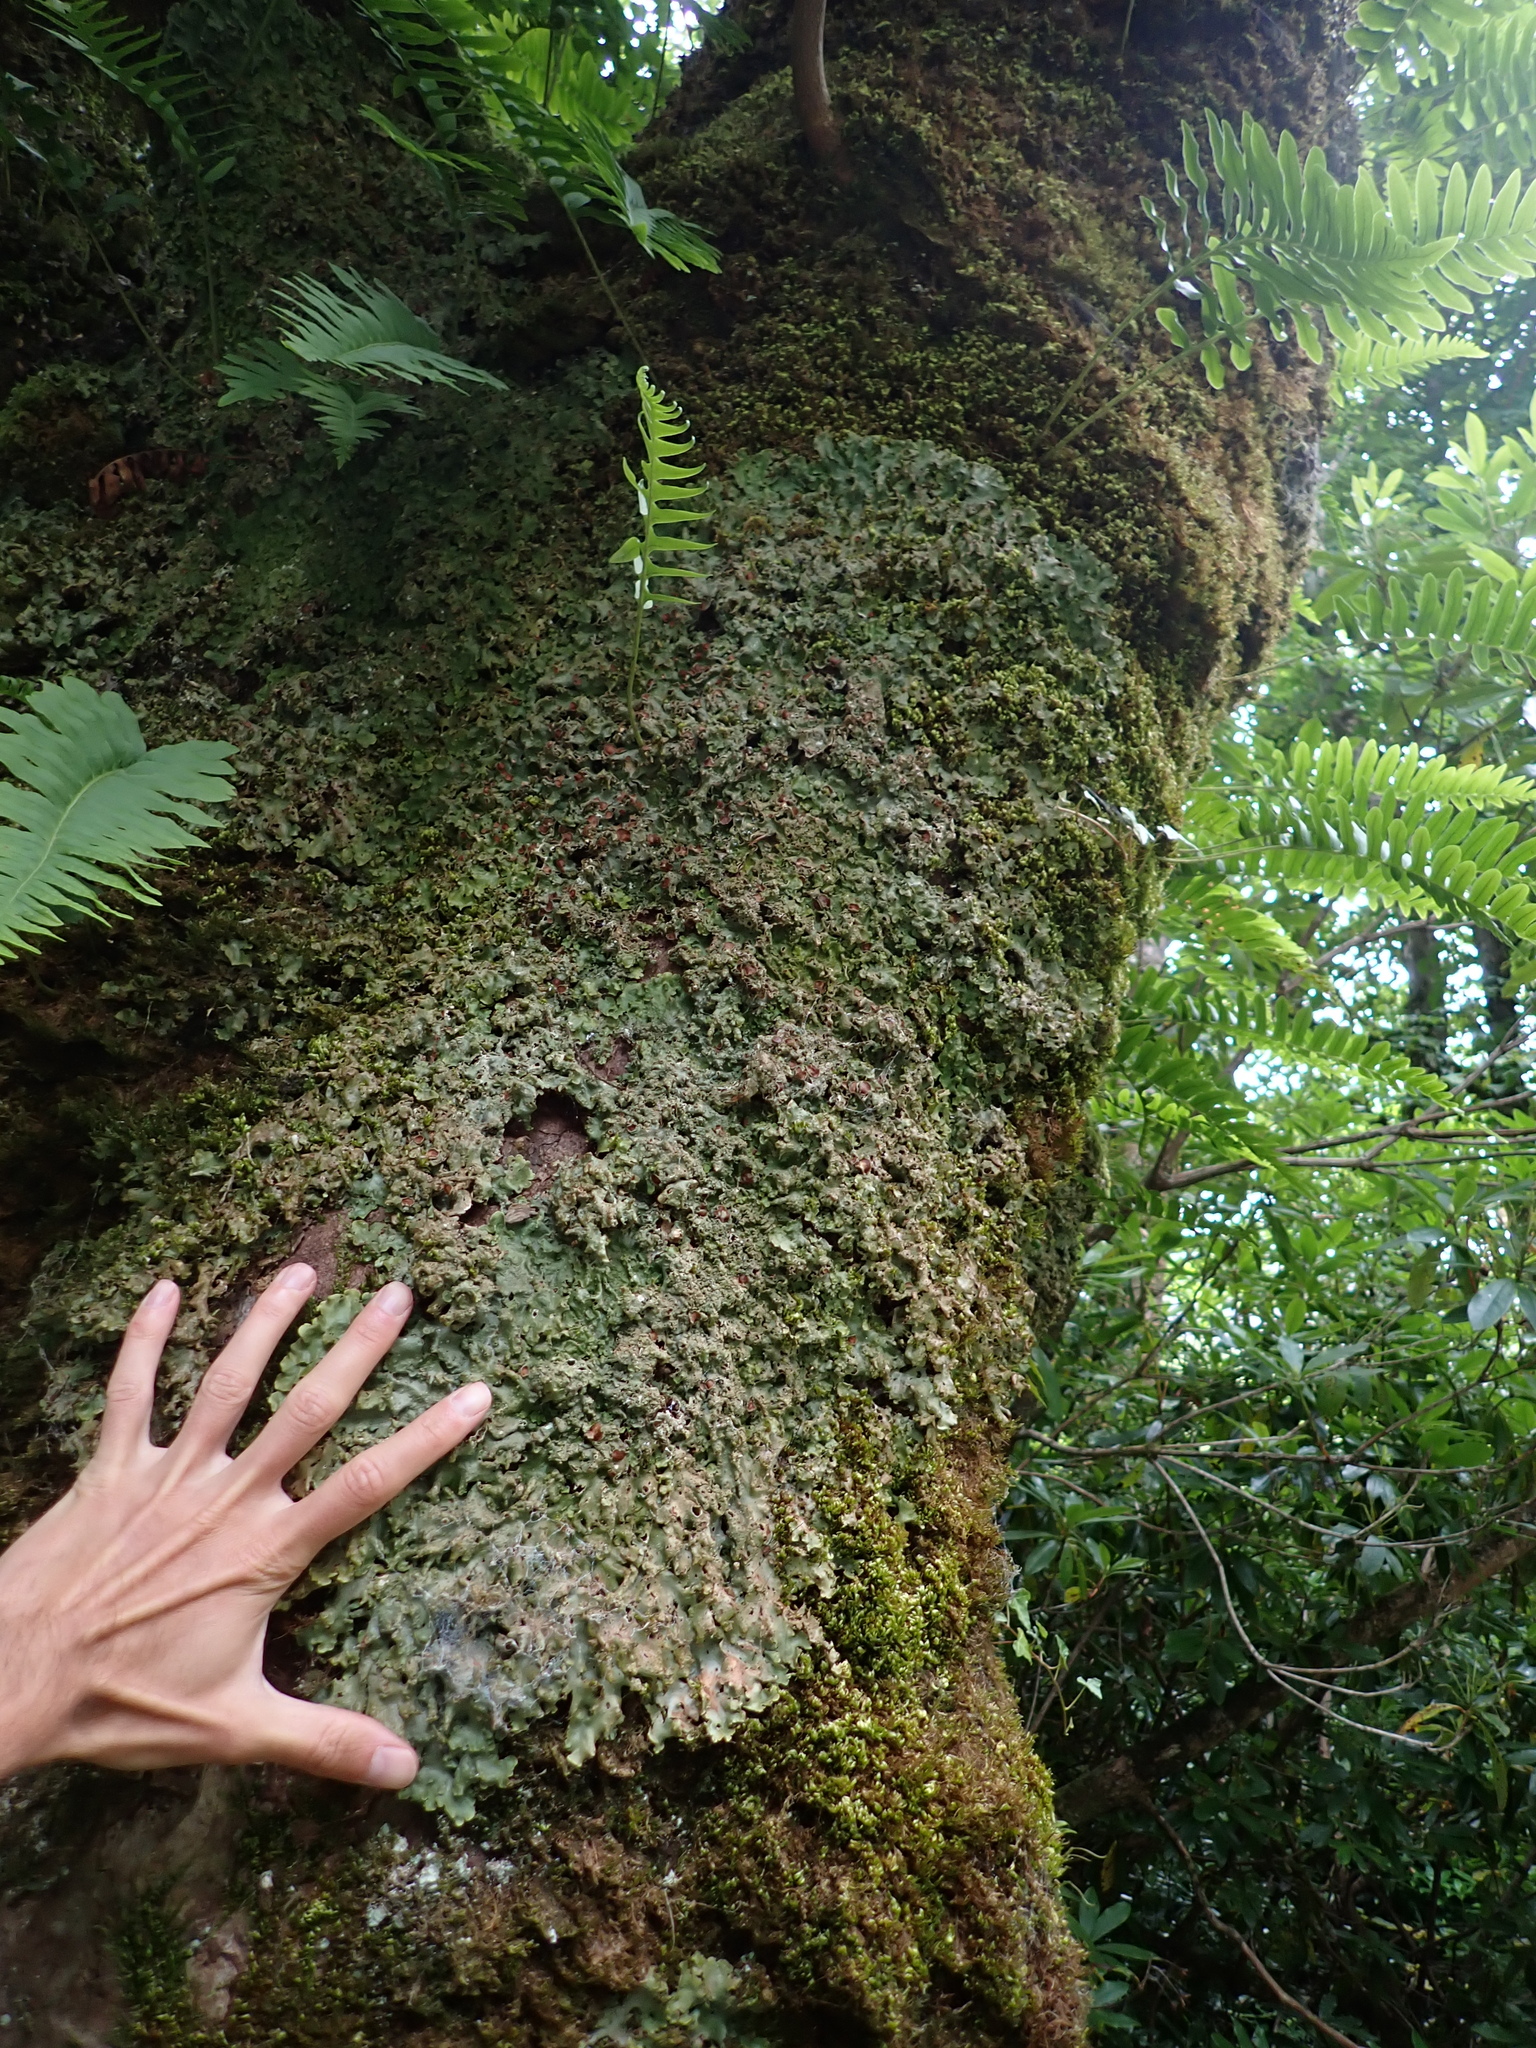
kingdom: Fungi
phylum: Ascomycota
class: Lecanoromycetes
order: Peltigerales
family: Lobariaceae
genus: Ricasolia
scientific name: Ricasolia virens
